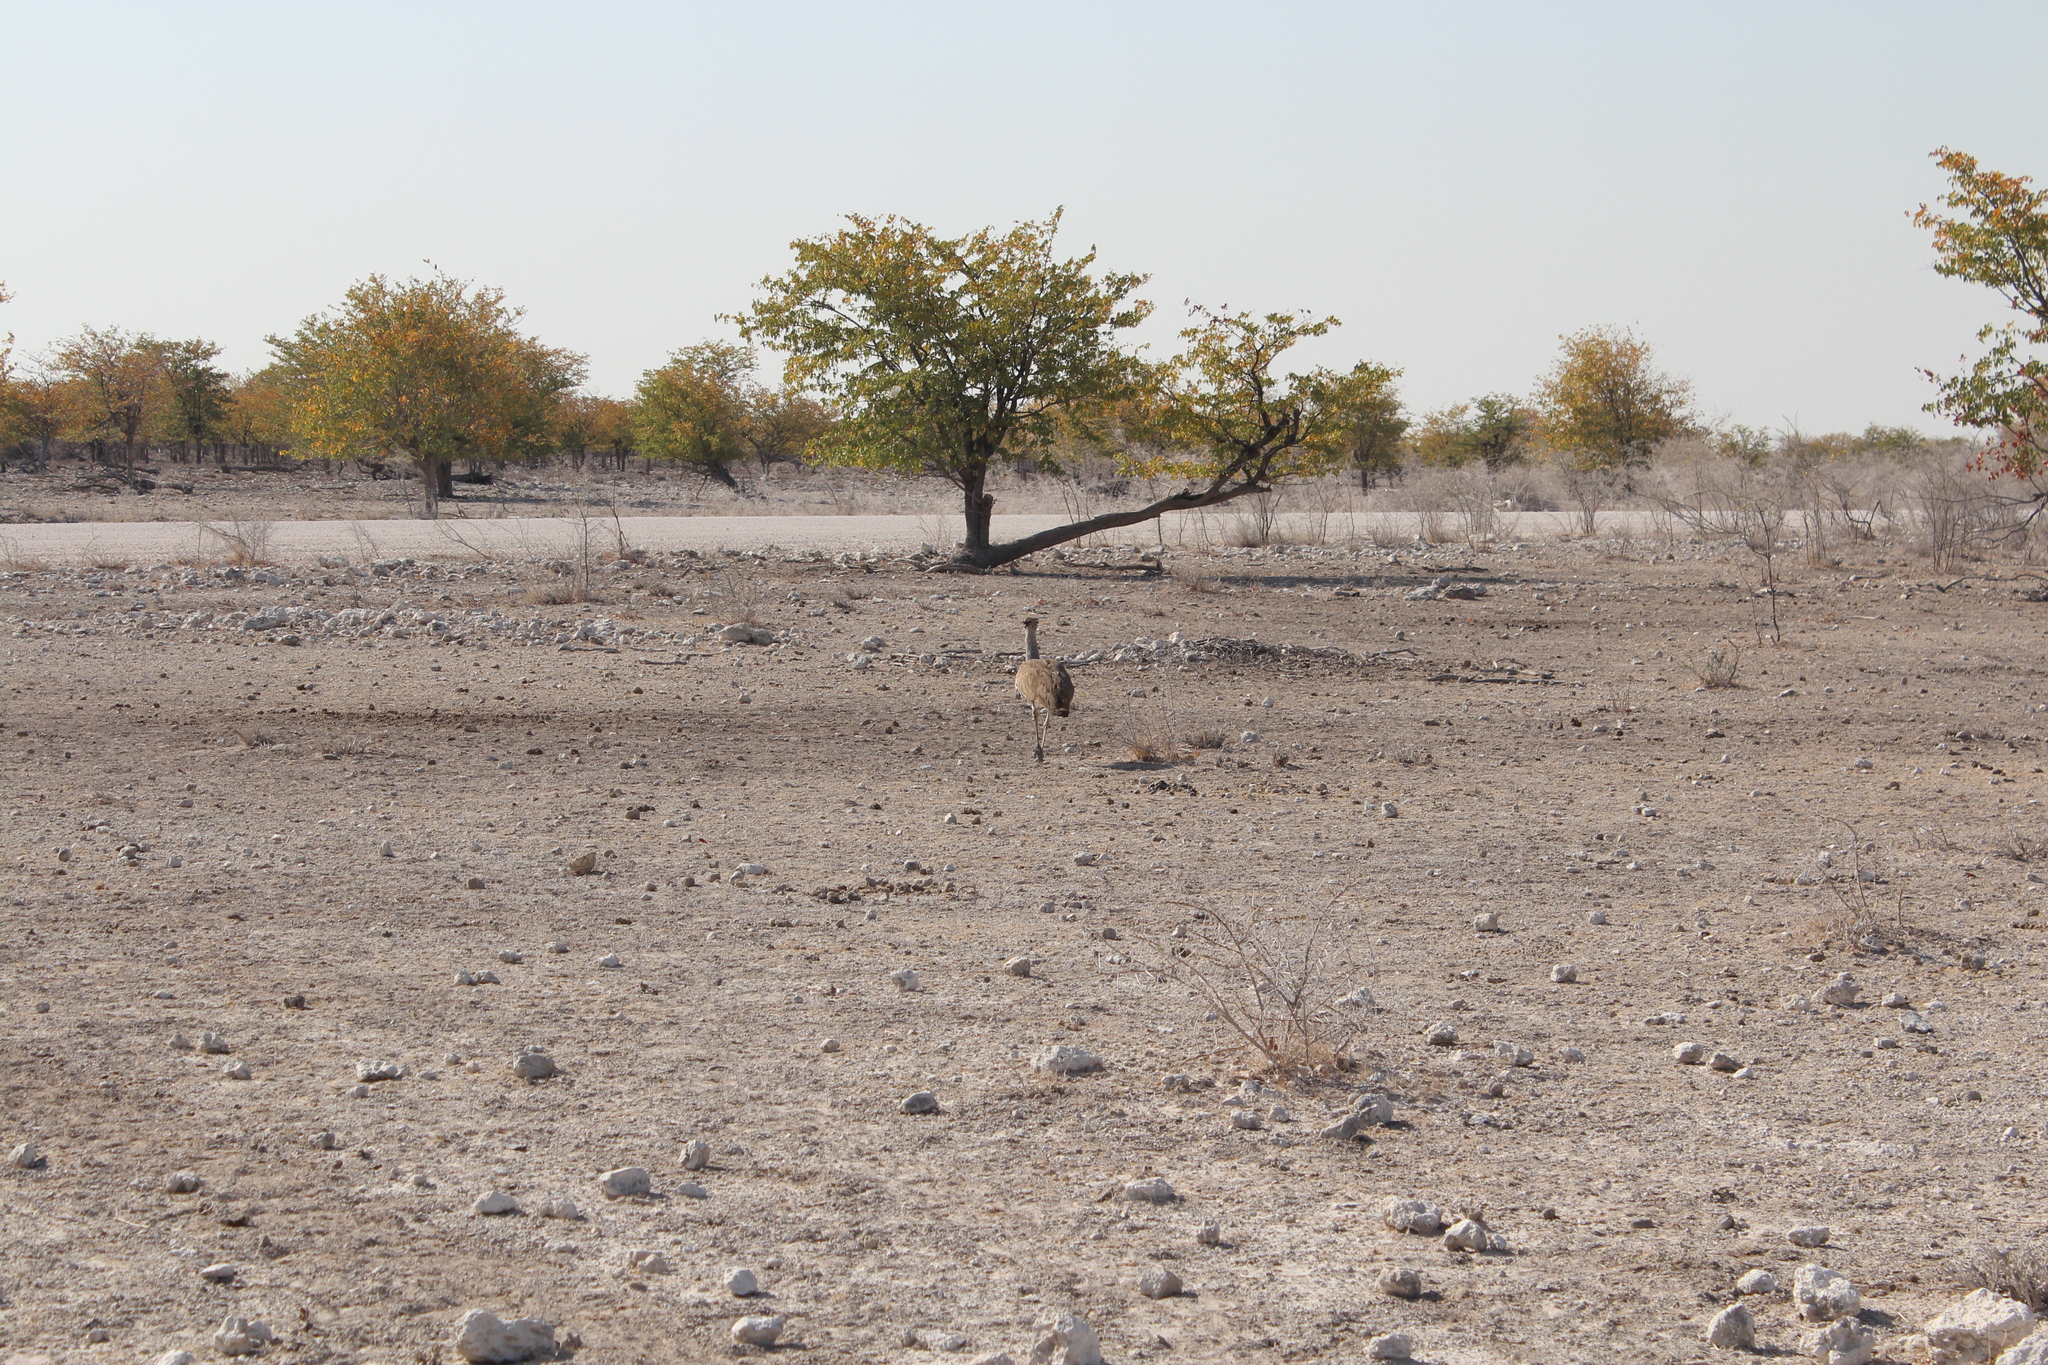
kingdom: Animalia
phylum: Chordata
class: Aves
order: Otidiformes
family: Otididae
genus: Ardeotis
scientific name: Ardeotis kori
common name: Kori bustard
